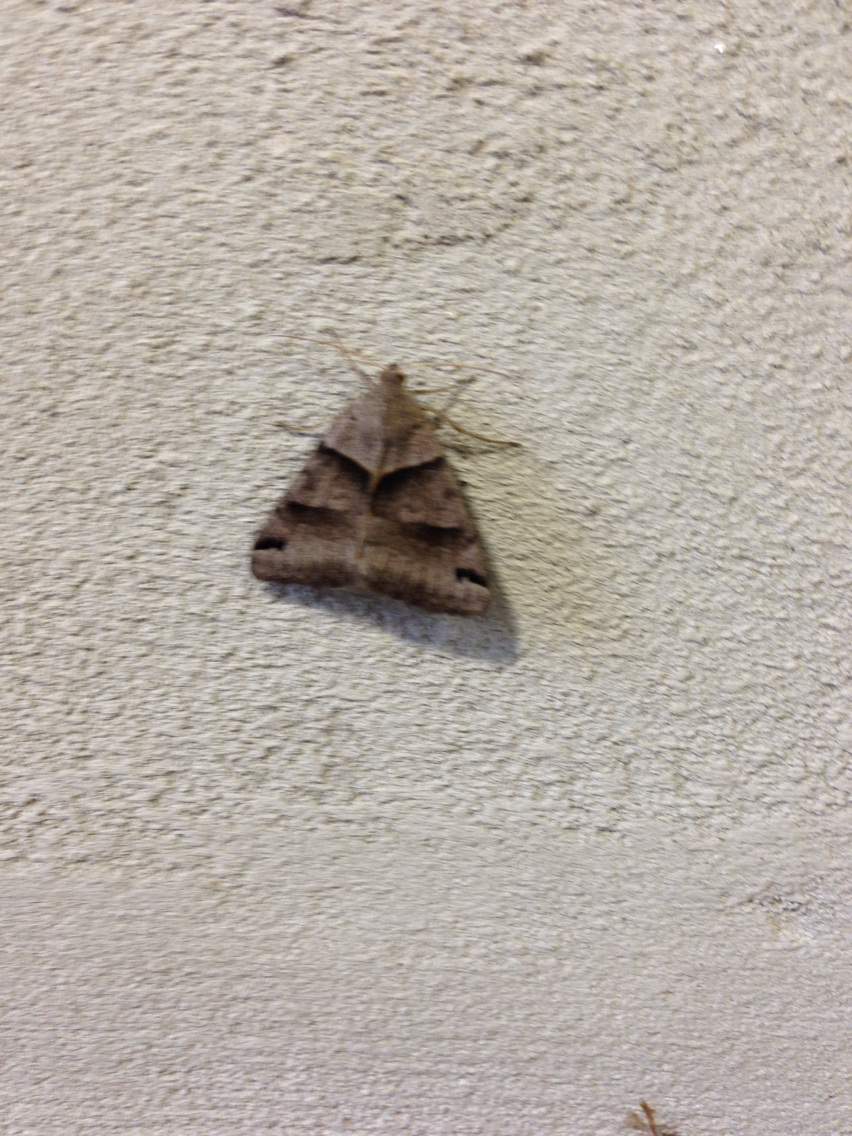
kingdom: Animalia
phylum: Arthropoda
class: Insecta
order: Lepidoptera
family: Erebidae
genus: Caenurgina
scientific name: Caenurgina erechtea
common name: Forage looper moth
